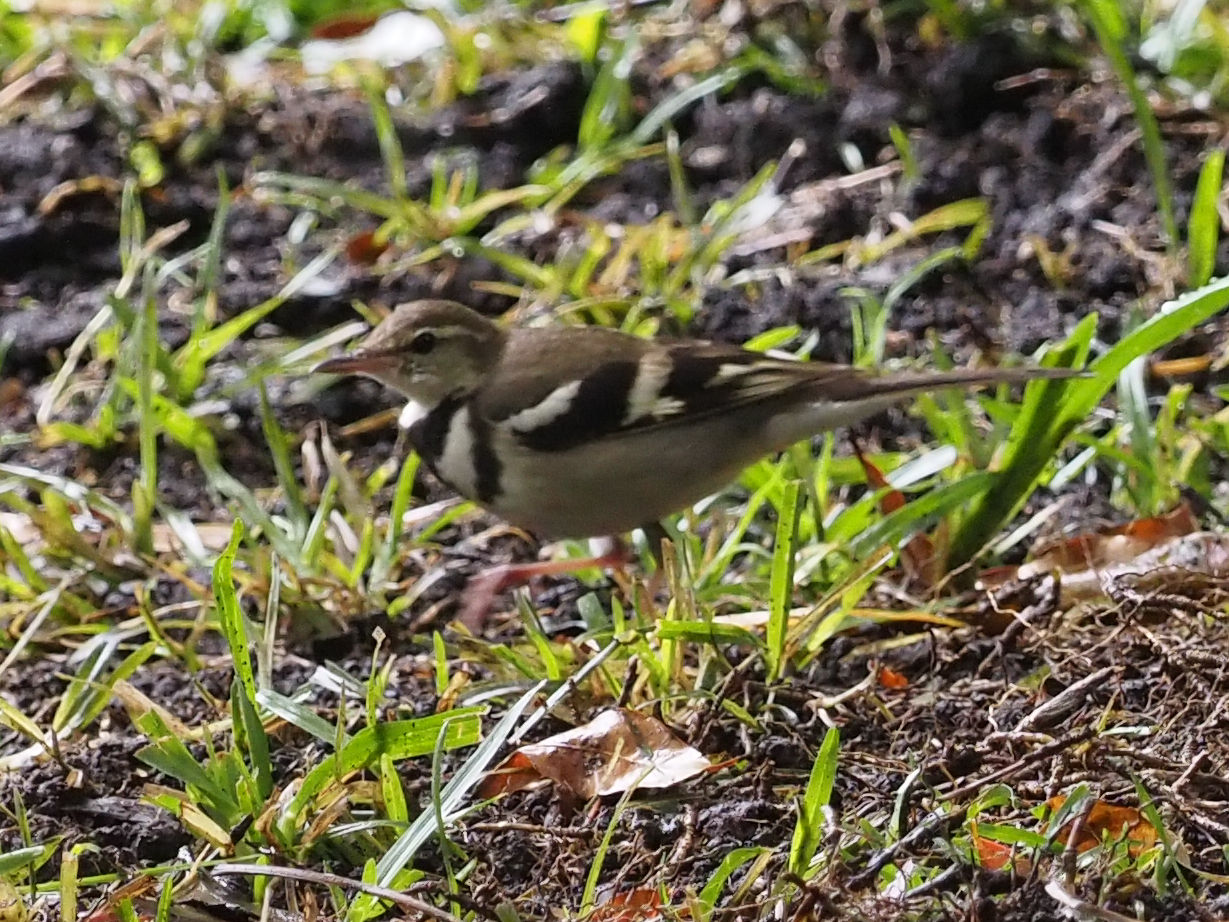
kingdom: Animalia
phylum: Chordata
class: Aves
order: Passeriformes
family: Motacillidae
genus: Dendronanthus
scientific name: Dendronanthus indicus
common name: Forest wagtail
